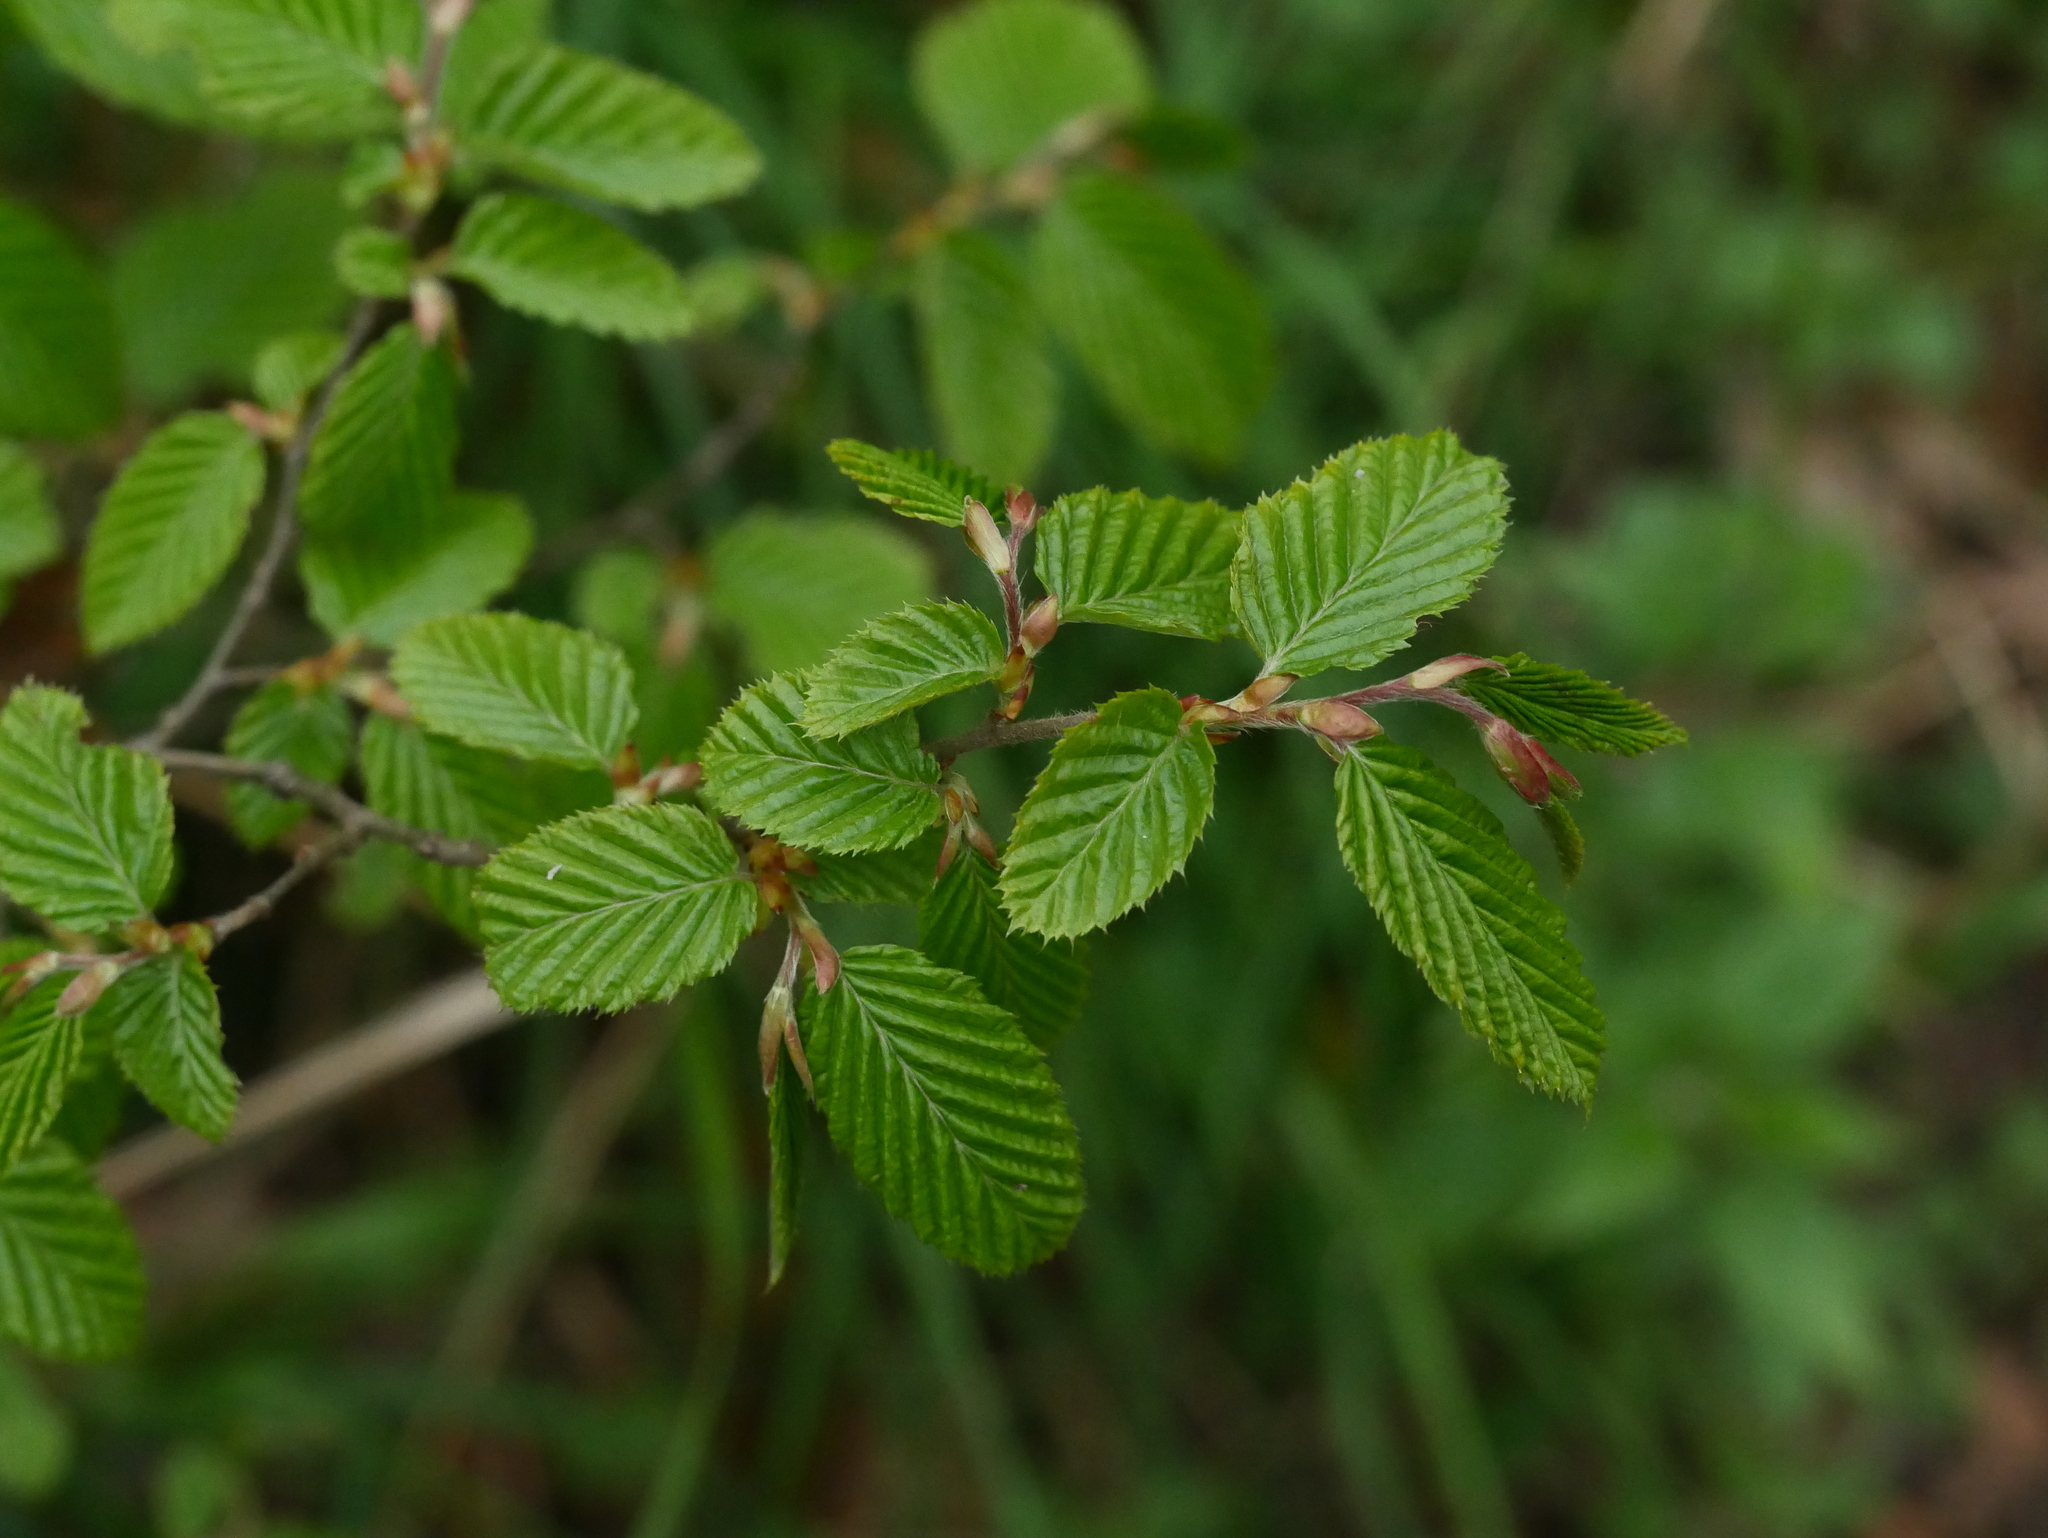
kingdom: Plantae
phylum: Tracheophyta
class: Magnoliopsida
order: Fagales
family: Betulaceae
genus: Carpinus
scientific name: Carpinus betulus
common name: Hornbeam
